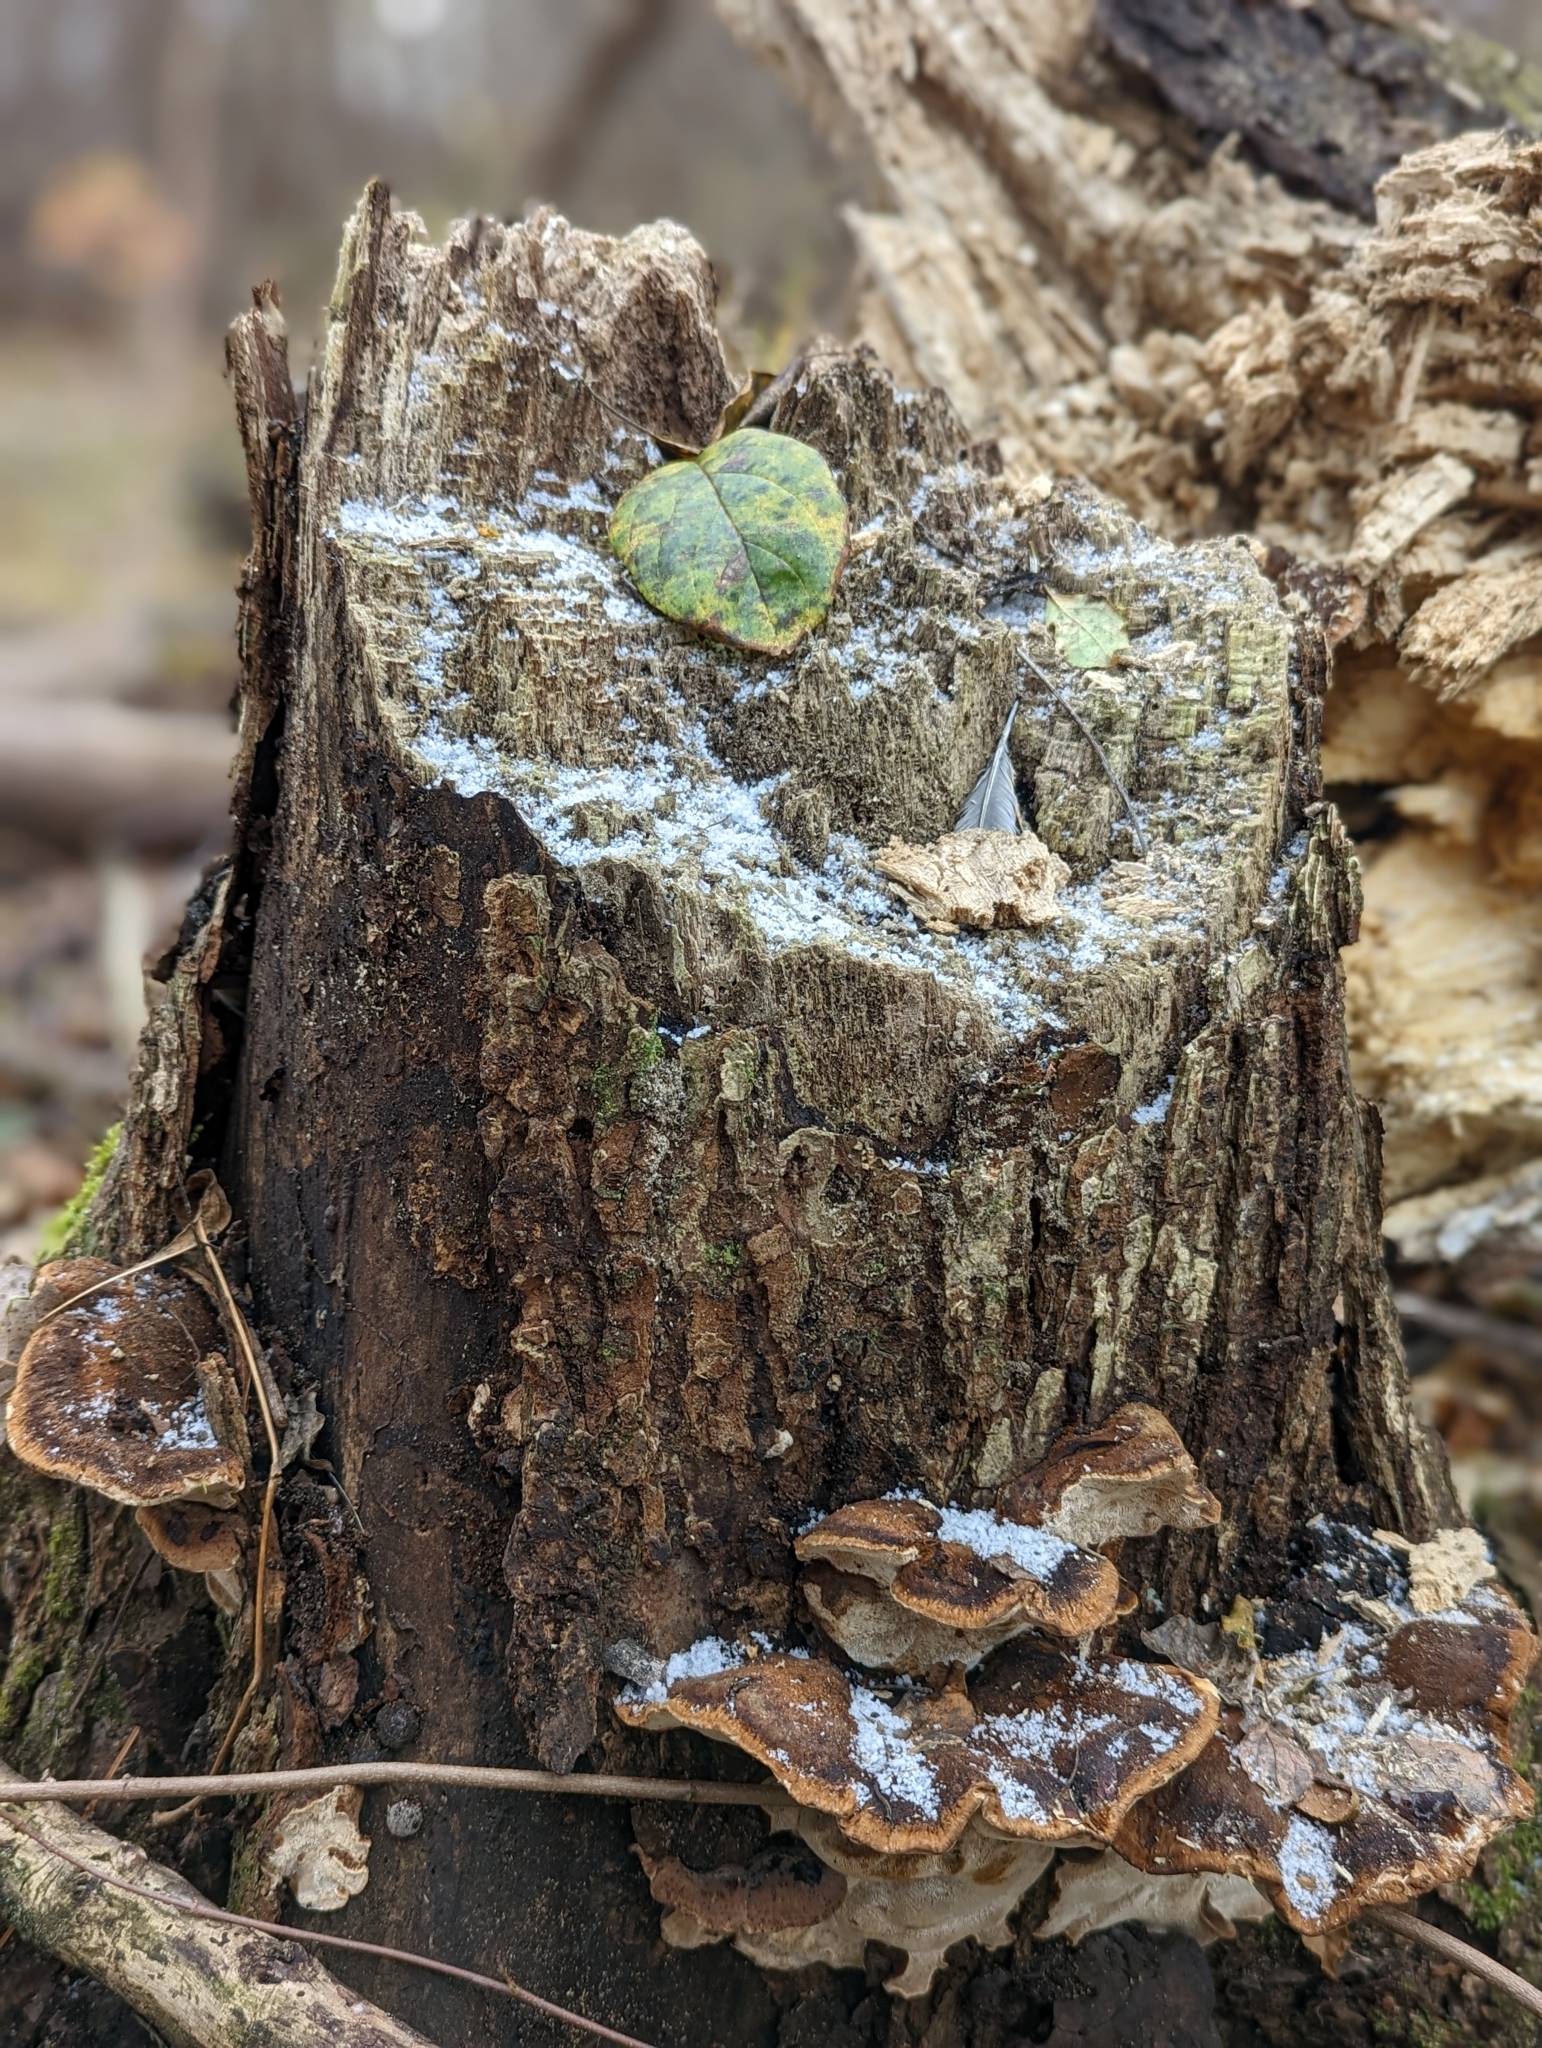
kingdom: Fungi
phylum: Basidiomycota
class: Agaricomycetes
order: Hymenochaetales
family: Hymenochaetaceae
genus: Phellinus
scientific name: Phellinus gilvus
